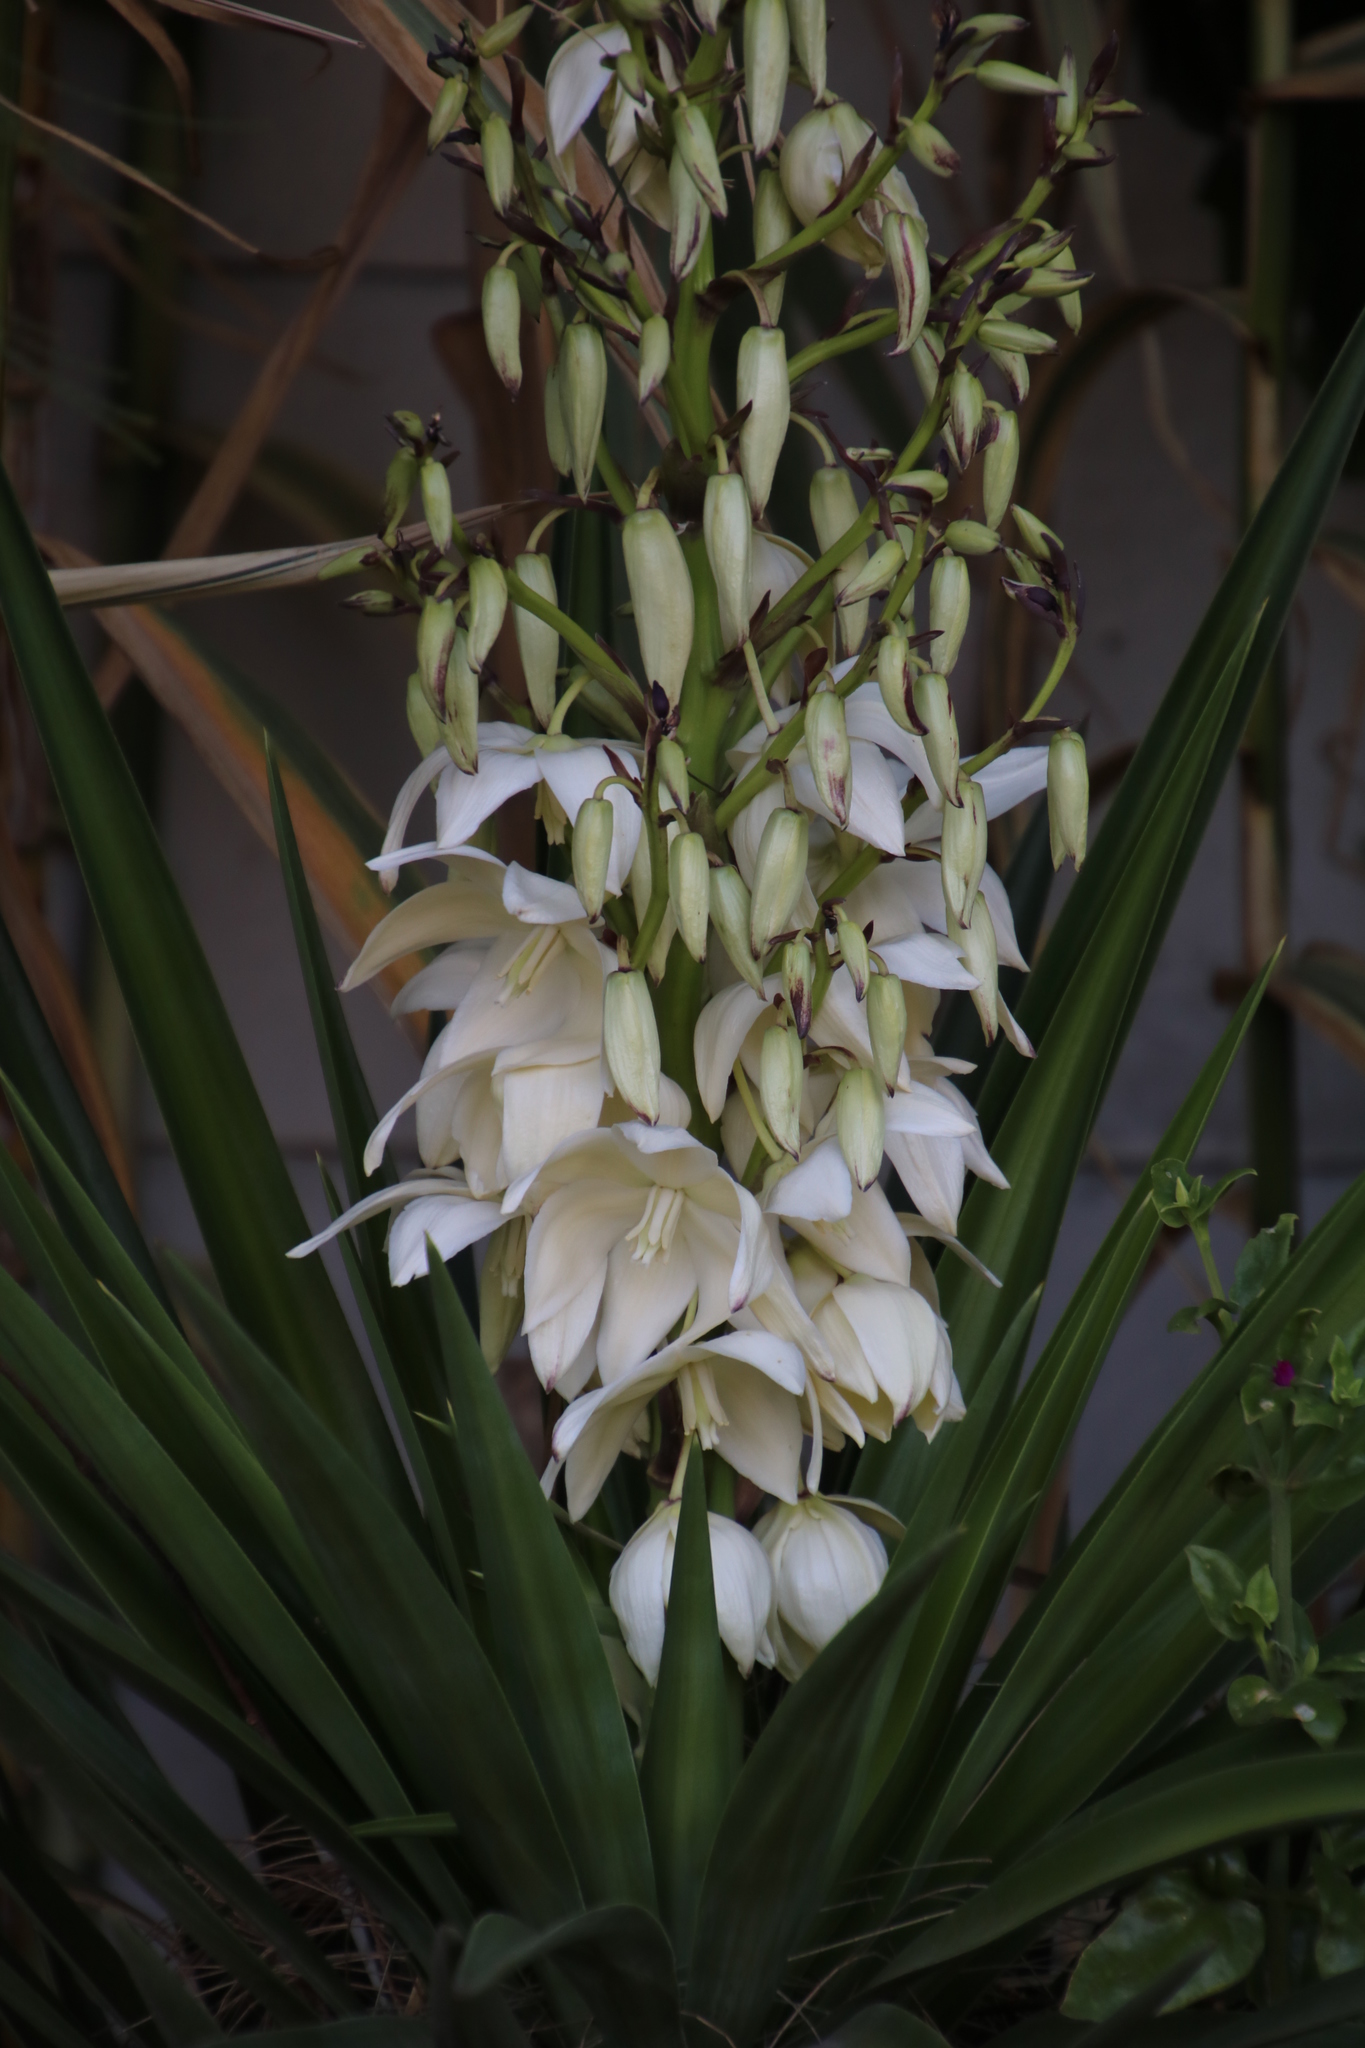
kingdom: Plantae
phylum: Tracheophyta
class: Liliopsida
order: Asparagales
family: Asparagaceae
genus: Yucca
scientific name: Yucca aloifolia
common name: Aloe yucca
